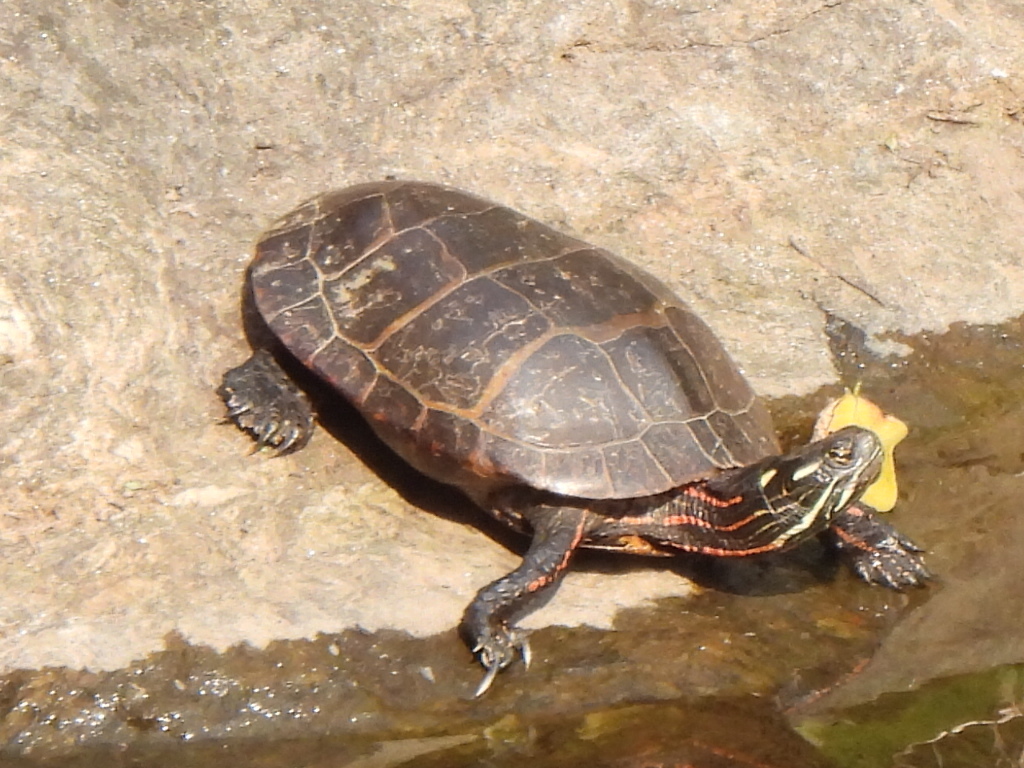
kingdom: Animalia
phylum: Chordata
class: Testudines
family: Emydidae
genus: Chrysemys
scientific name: Chrysemys picta
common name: Painted turtle
